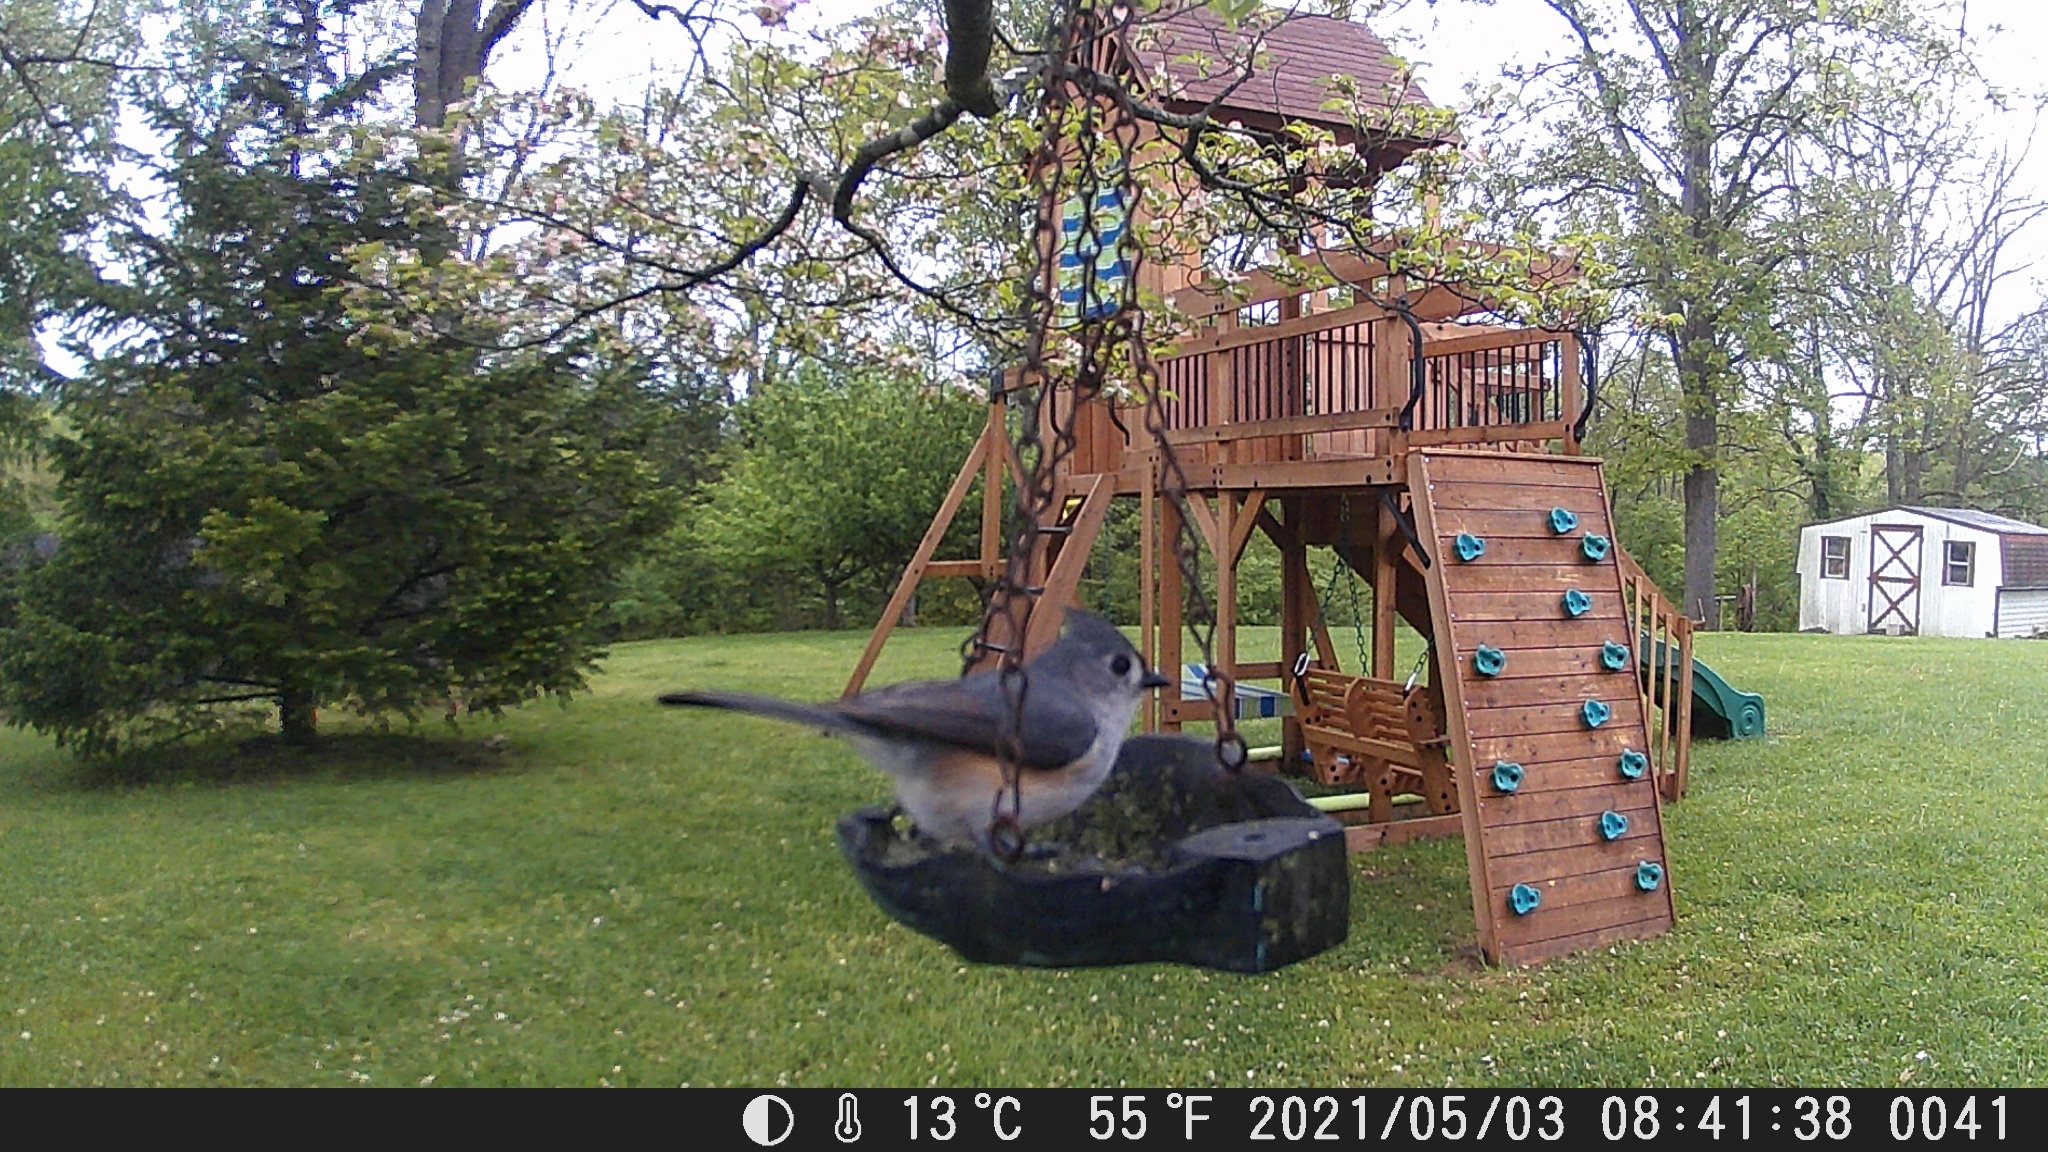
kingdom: Animalia
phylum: Chordata
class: Aves
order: Passeriformes
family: Paridae
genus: Baeolophus
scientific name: Baeolophus bicolor
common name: Tufted titmouse
